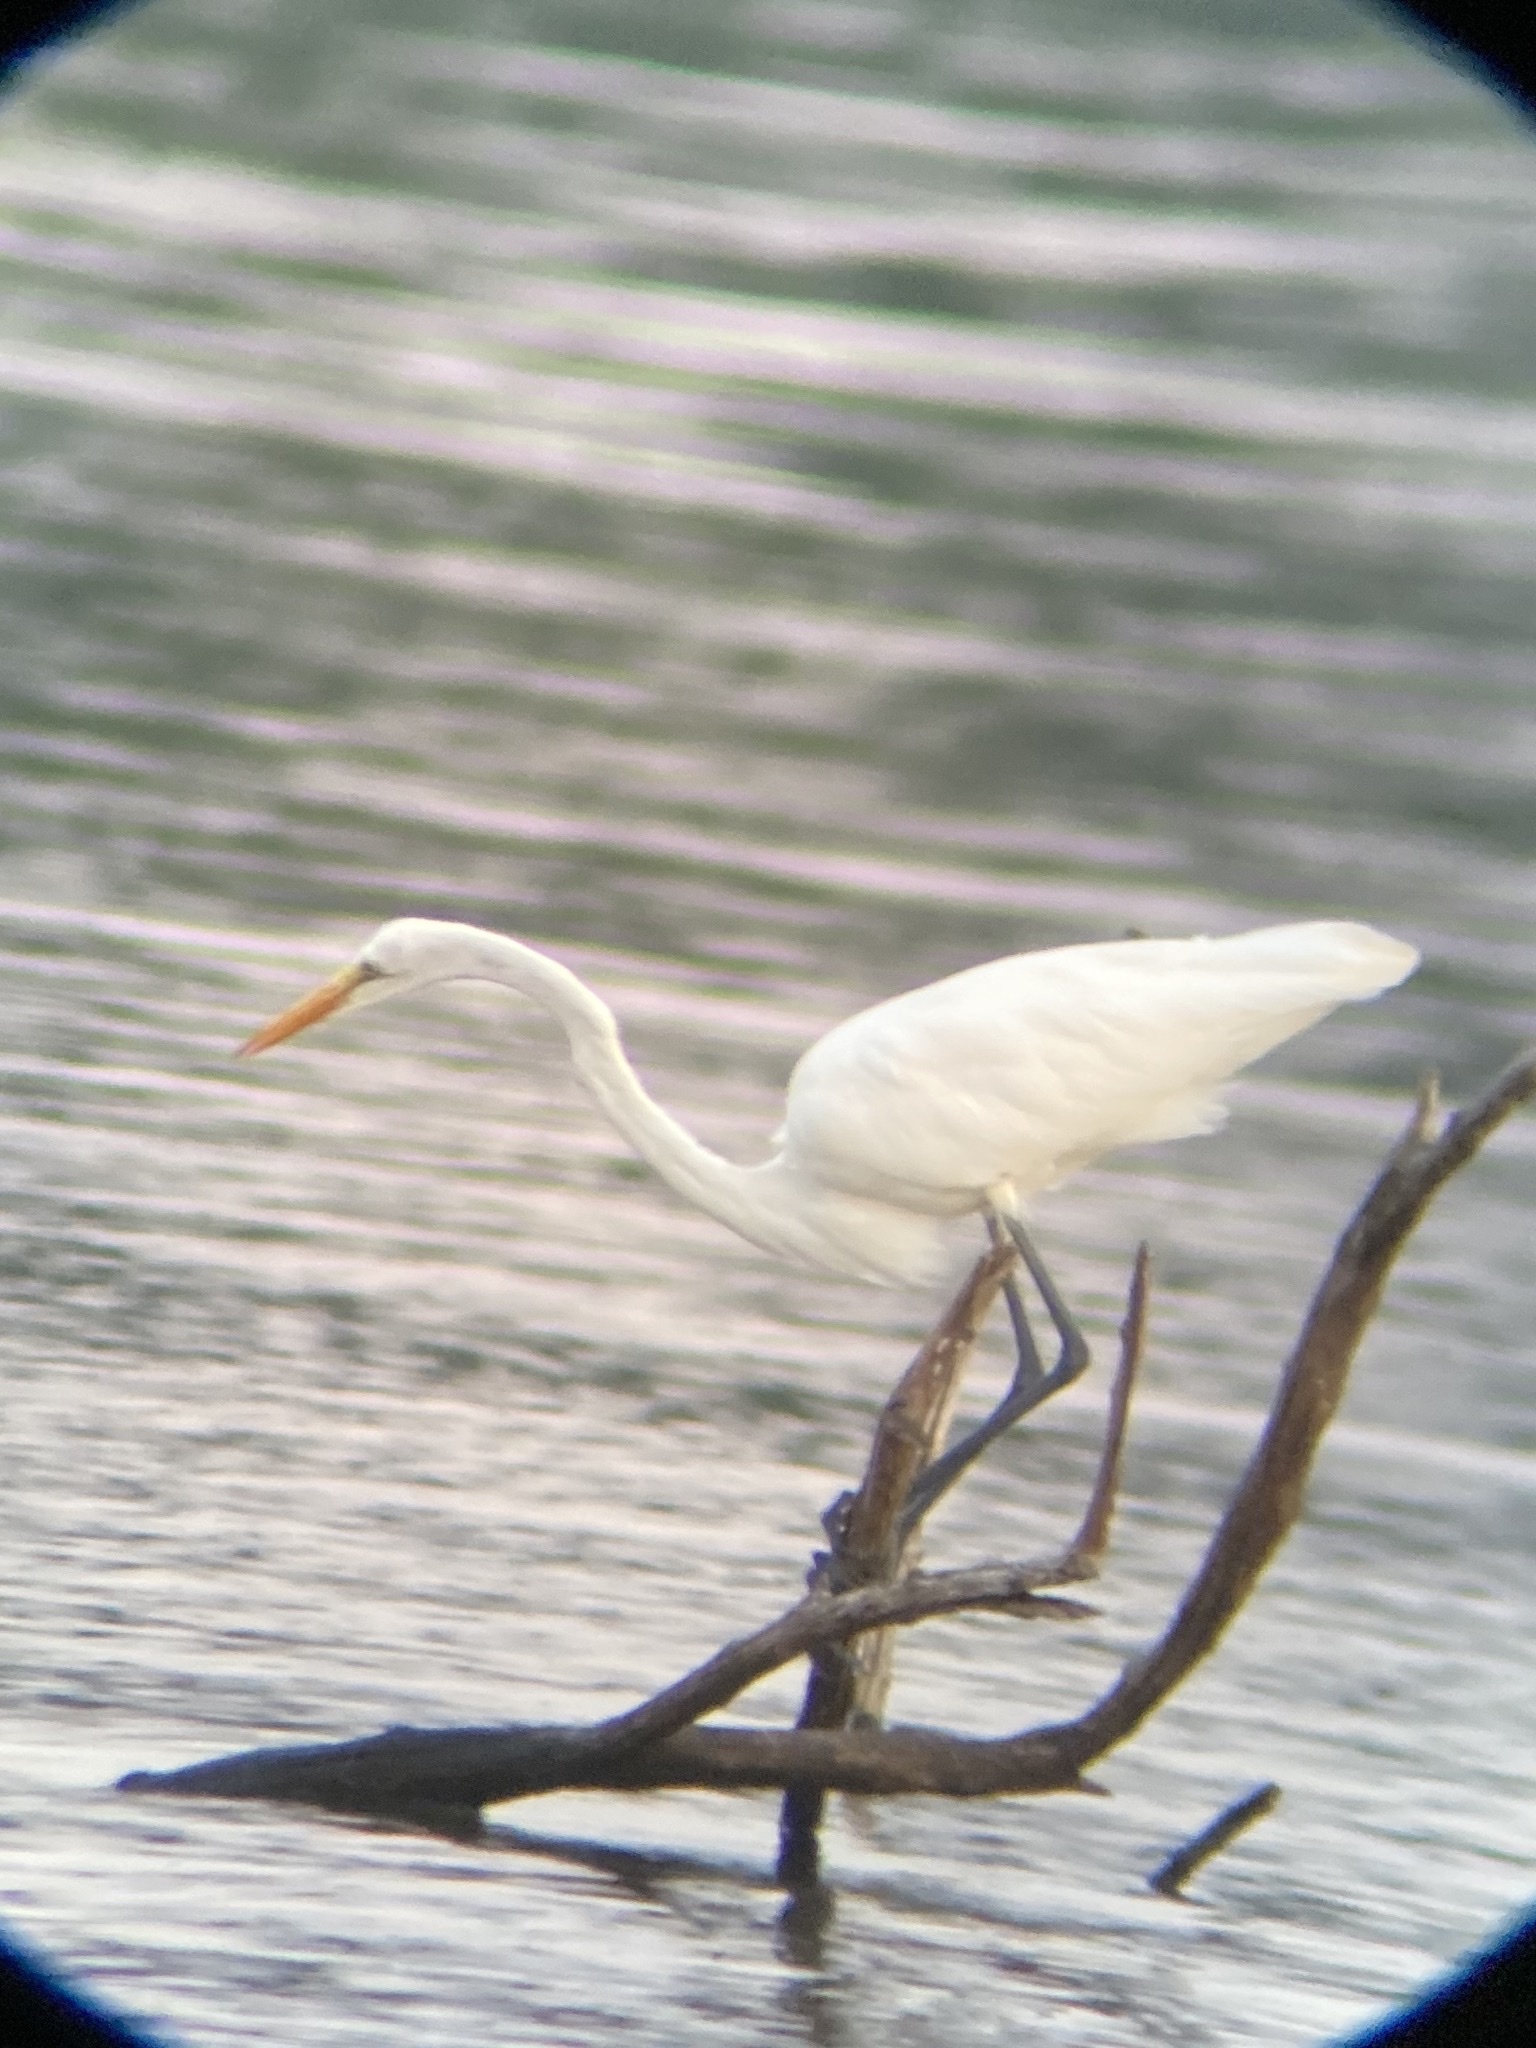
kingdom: Animalia
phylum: Chordata
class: Aves
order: Pelecaniformes
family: Ardeidae
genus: Ardea
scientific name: Ardea alba
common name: Great egret
